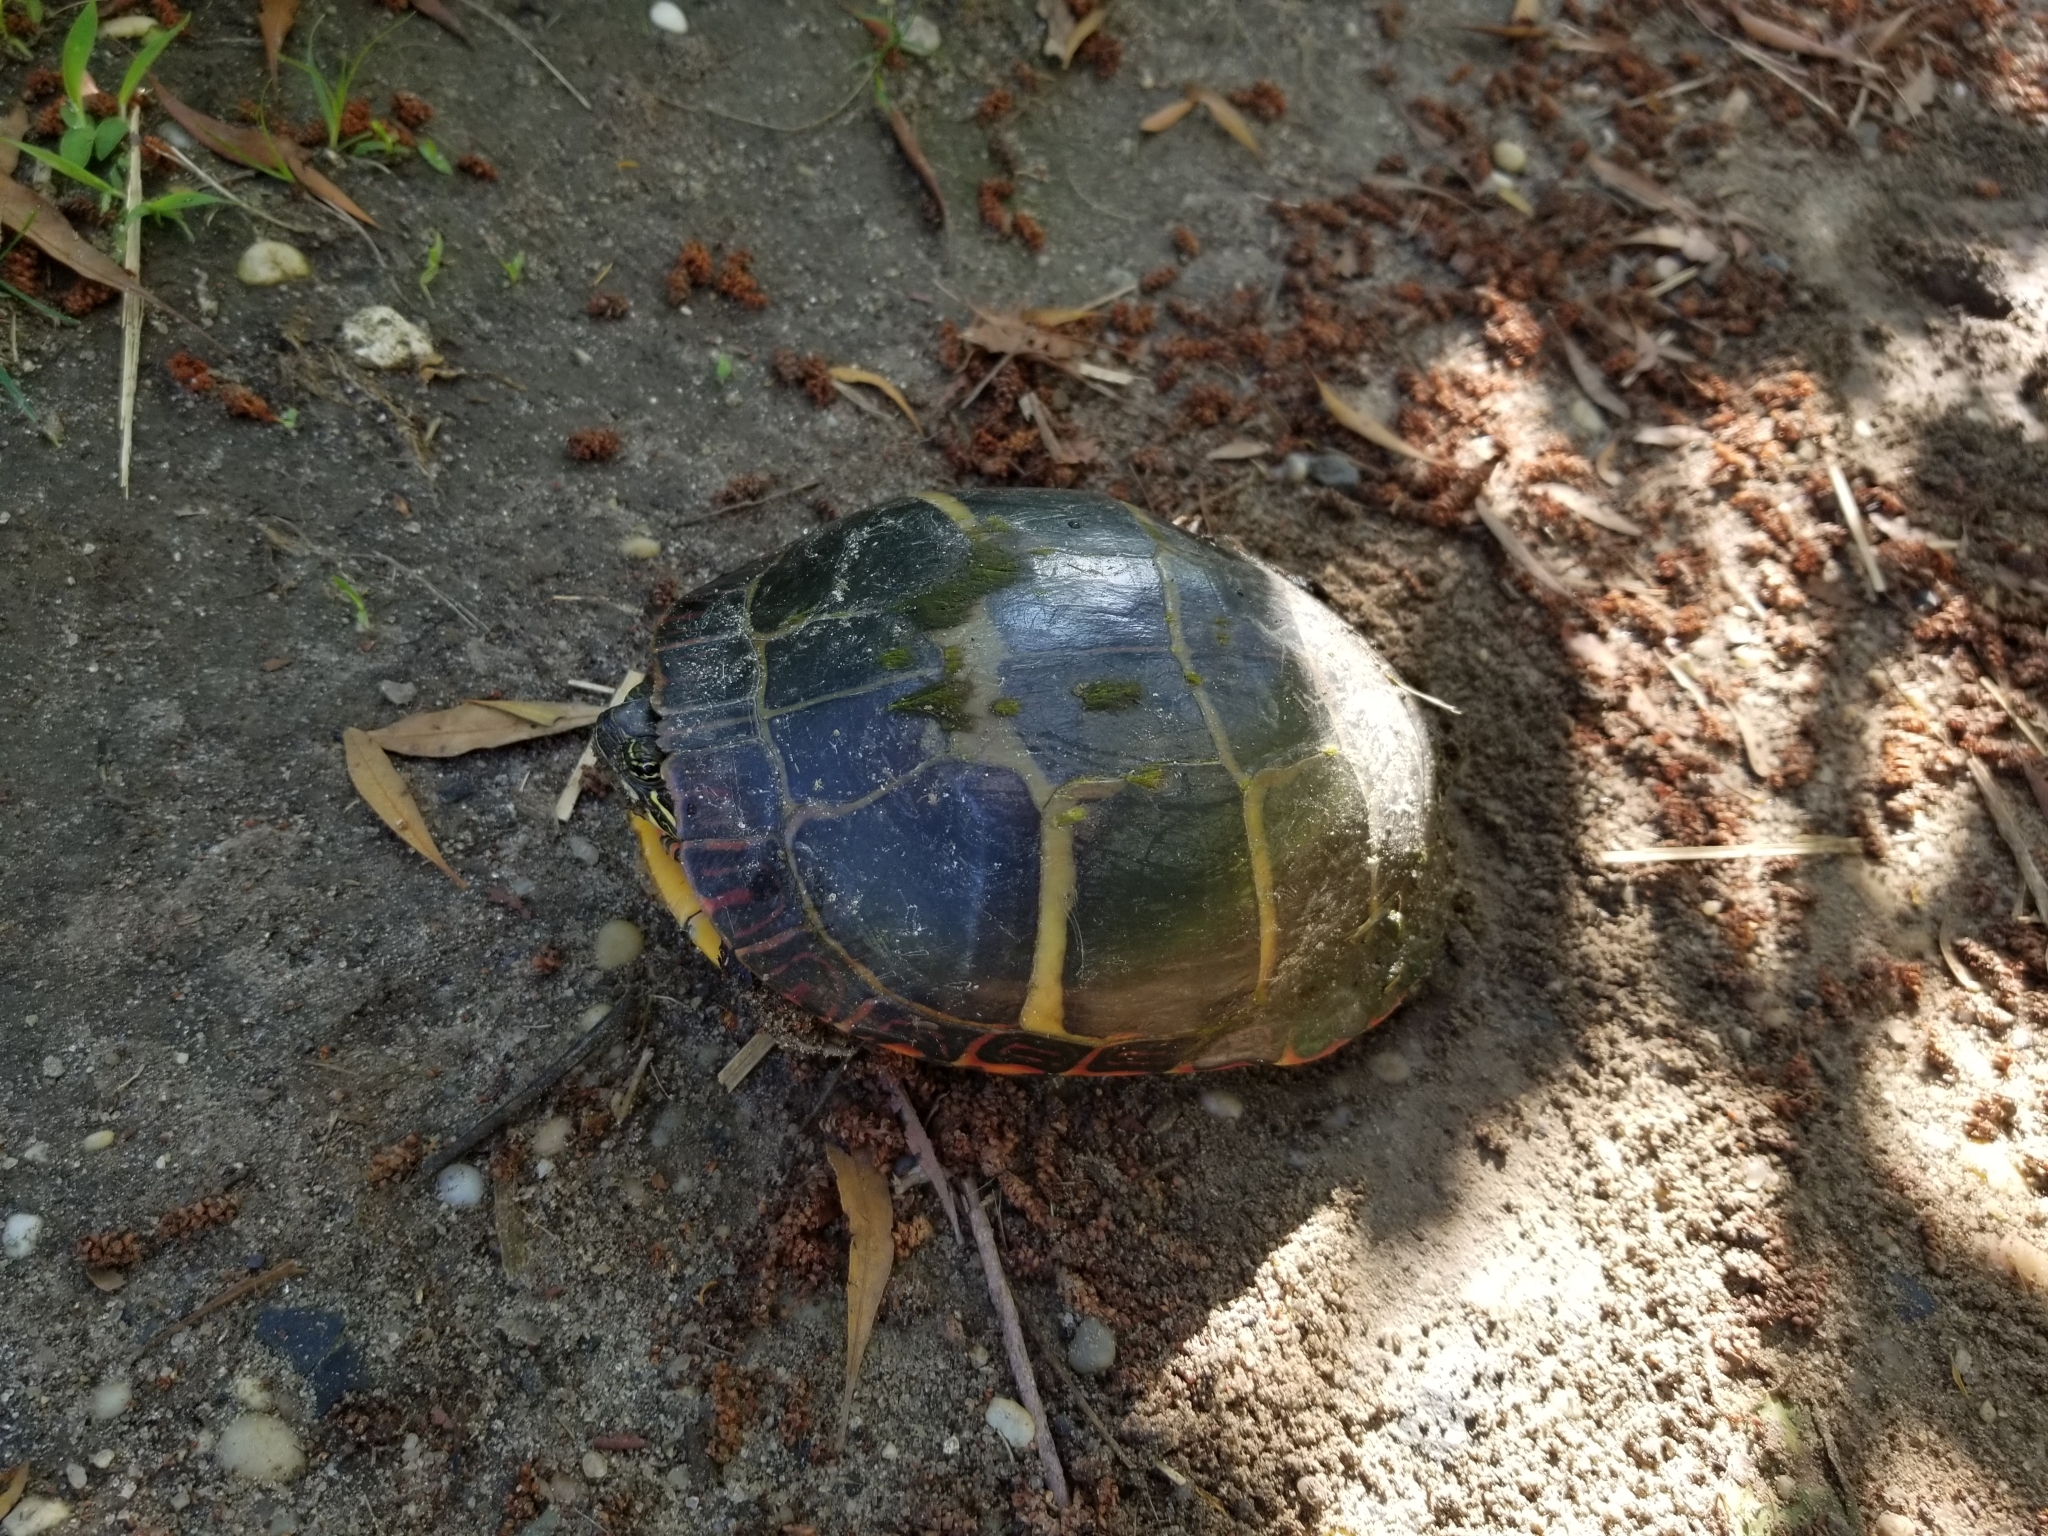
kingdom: Animalia
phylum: Chordata
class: Testudines
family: Emydidae
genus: Chrysemys
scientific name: Chrysemys picta
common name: Painted turtle
